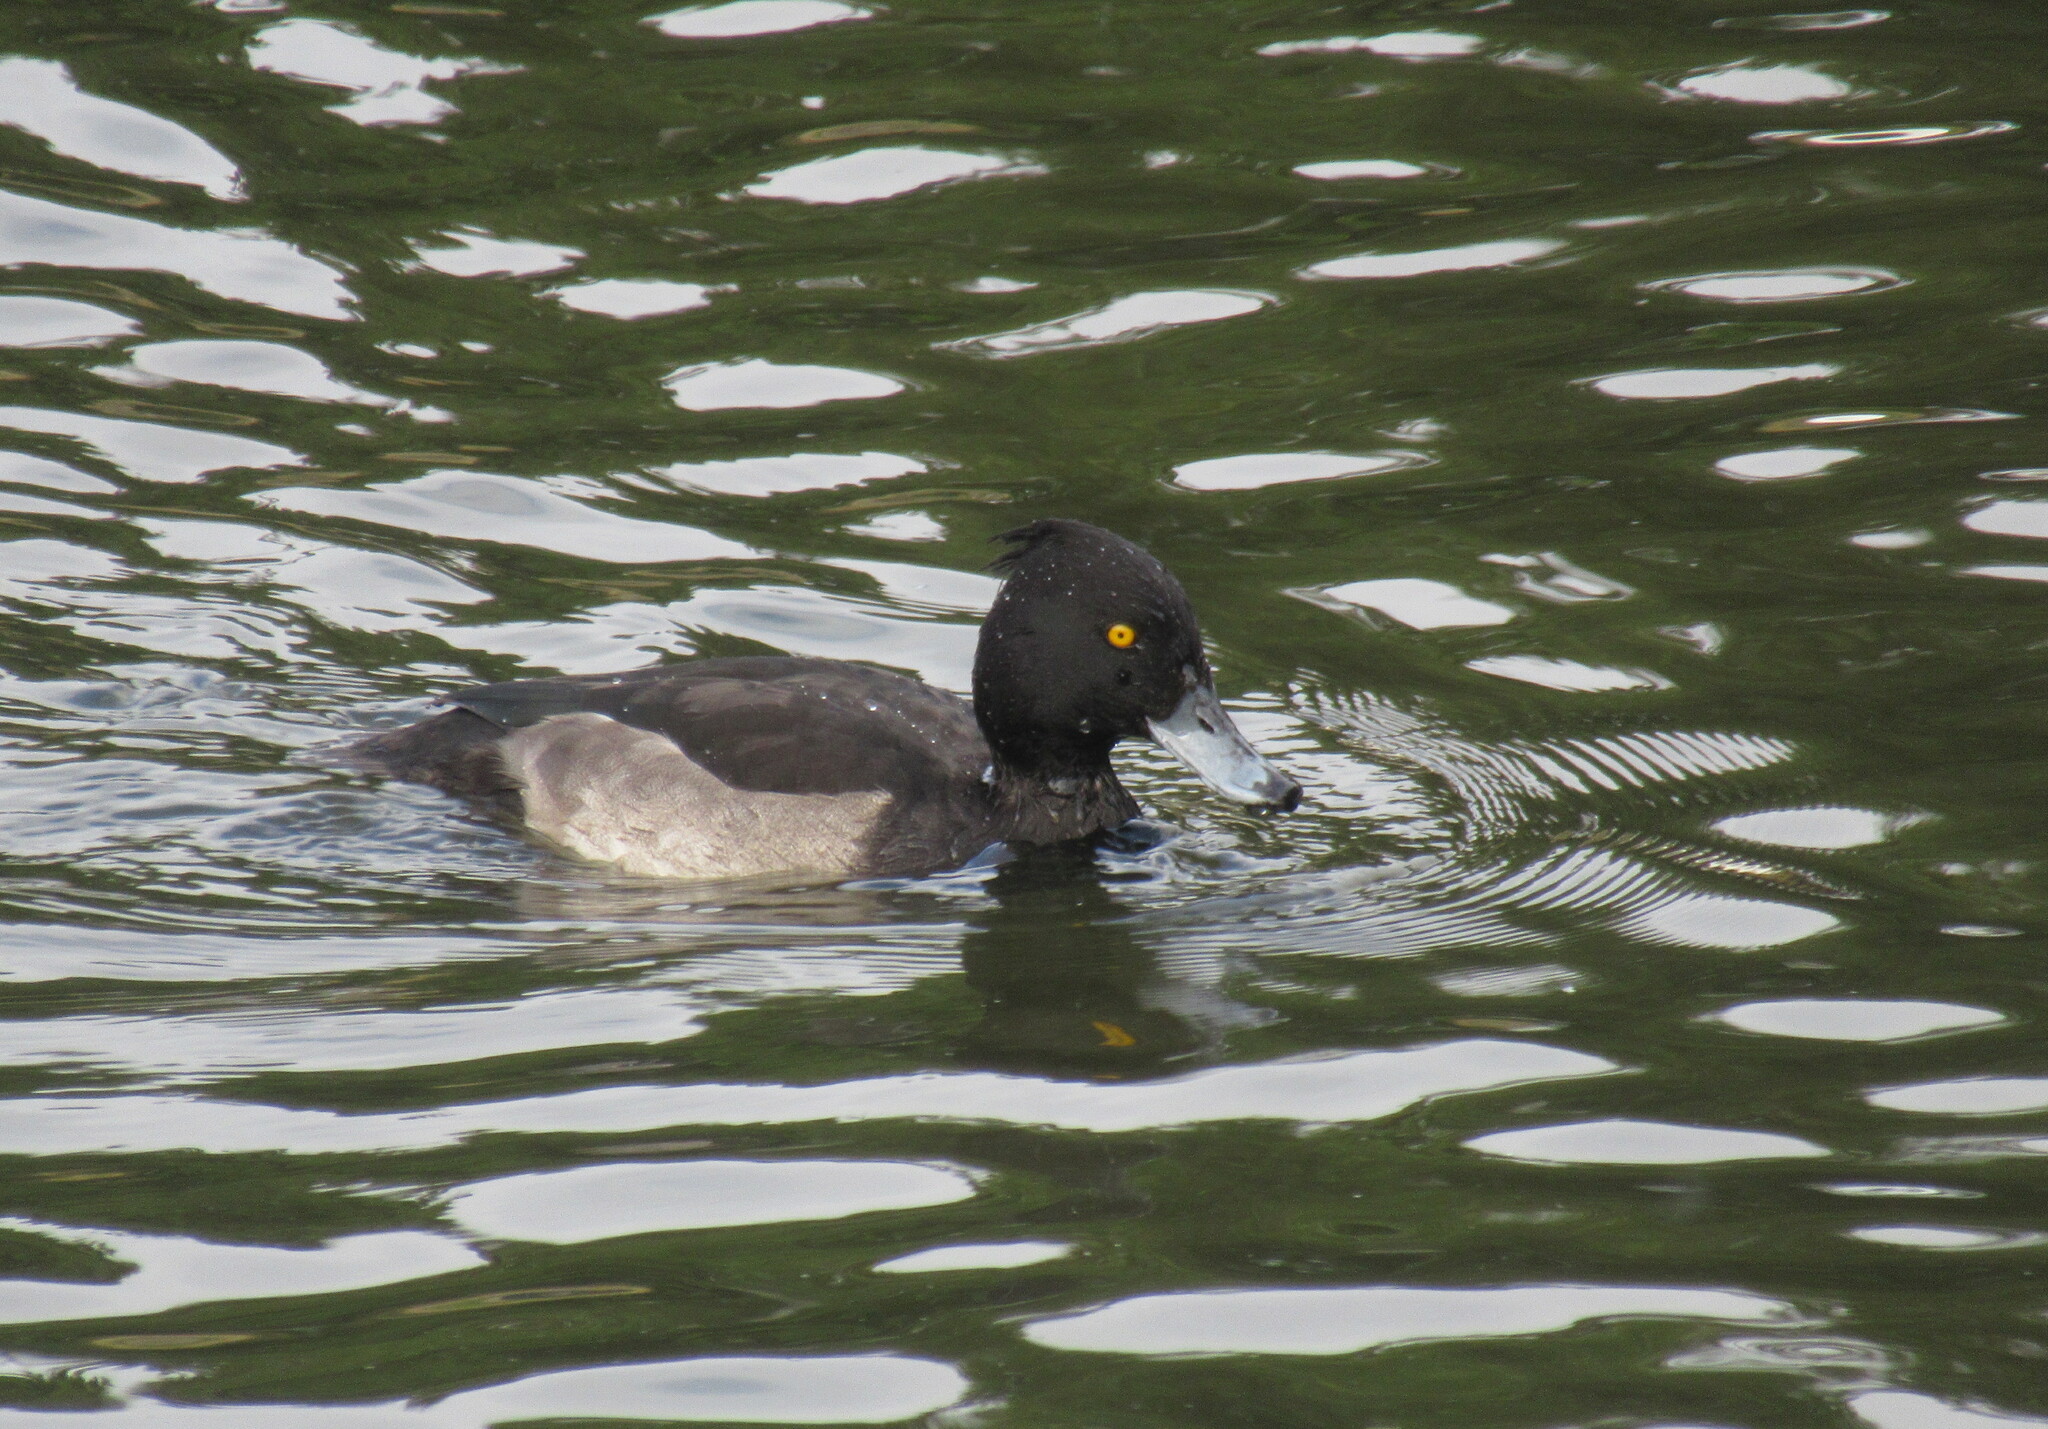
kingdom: Animalia
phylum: Chordata
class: Aves
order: Anseriformes
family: Anatidae
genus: Aythya
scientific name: Aythya fuligula
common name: Tufted duck
